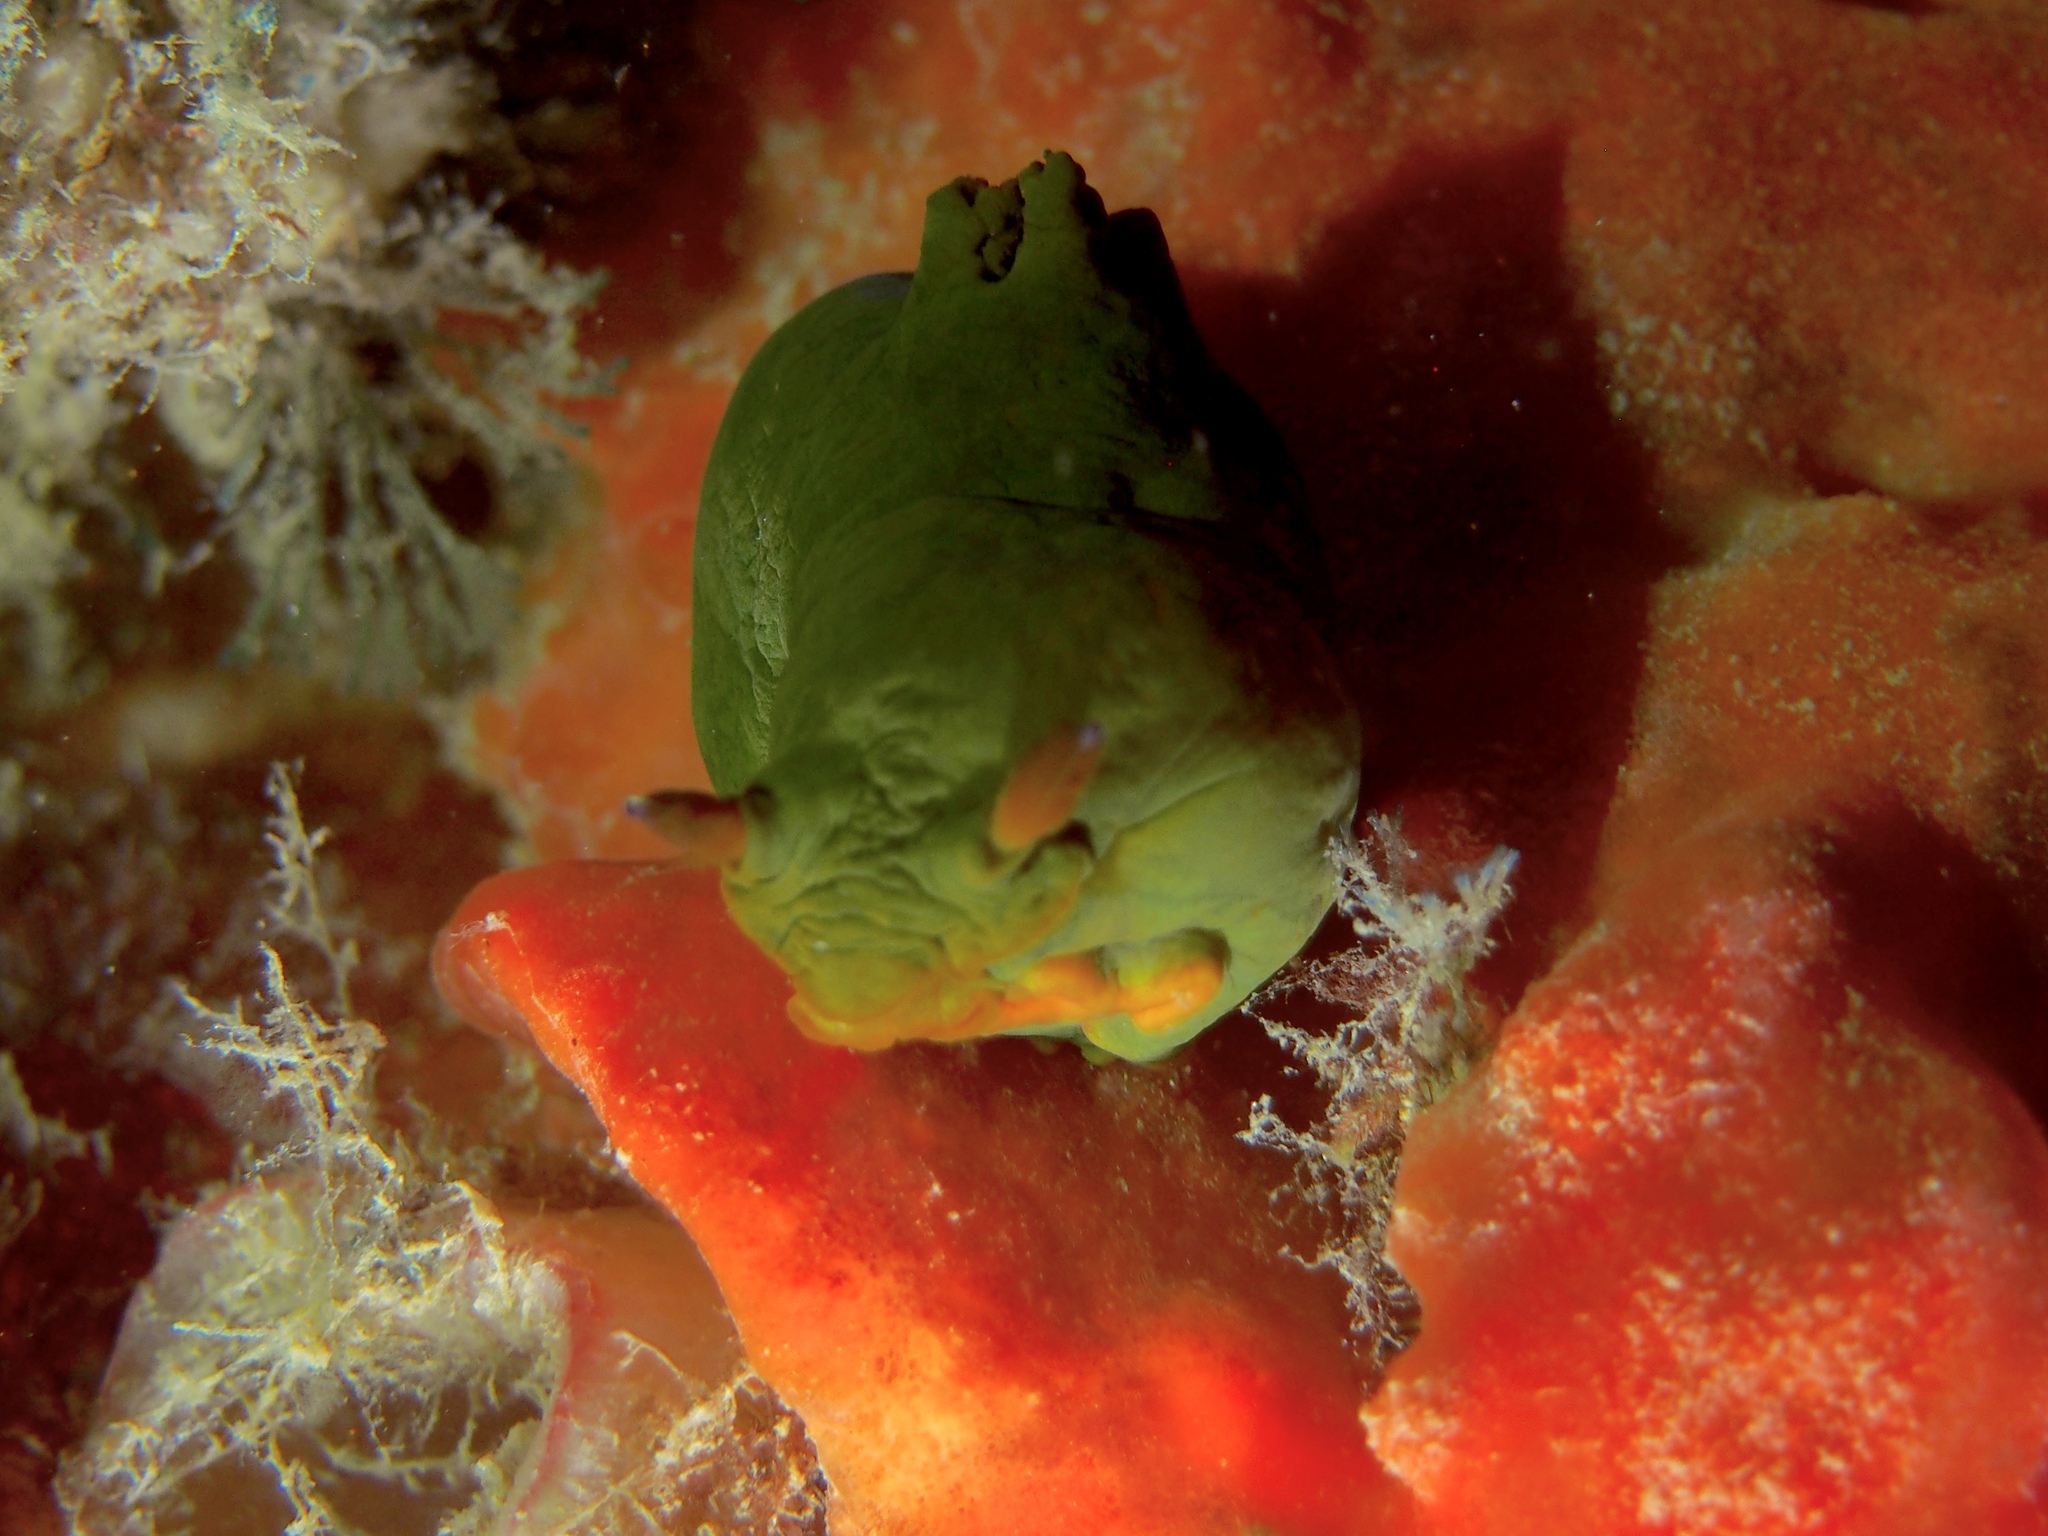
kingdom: Animalia
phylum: Mollusca
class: Gastropoda
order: Nudibranchia
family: Polyceridae
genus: Tambja
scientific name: Tambja dracomus
